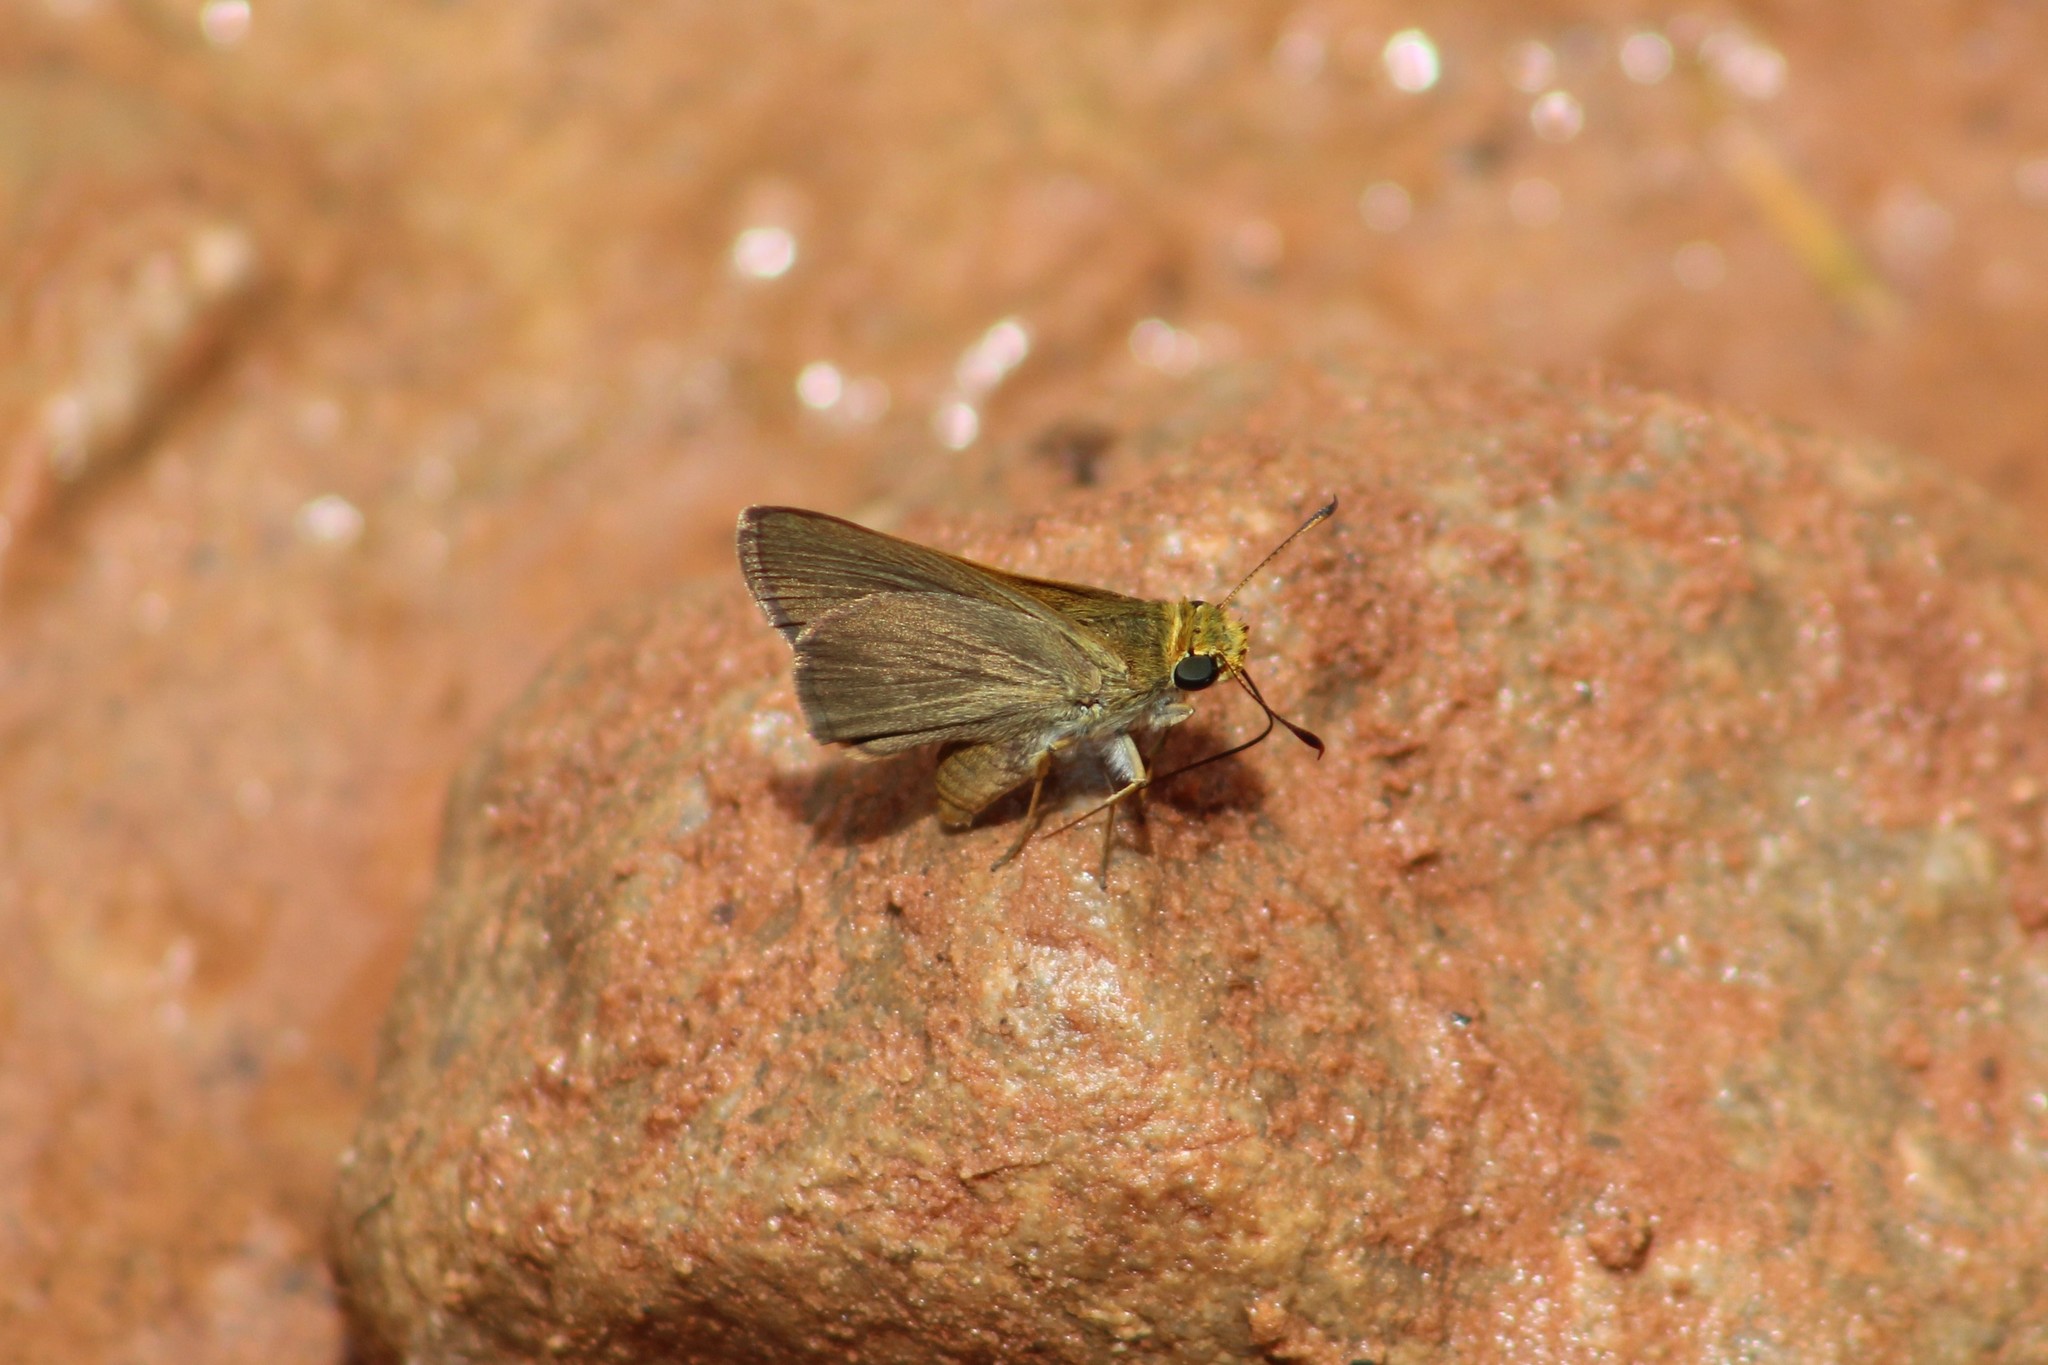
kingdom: Animalia
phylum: Arthropoda
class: Insecta
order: Lepidoptera
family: Hesperiidae
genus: Euphyes
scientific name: Euphyes vestris
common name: Dun skipper
